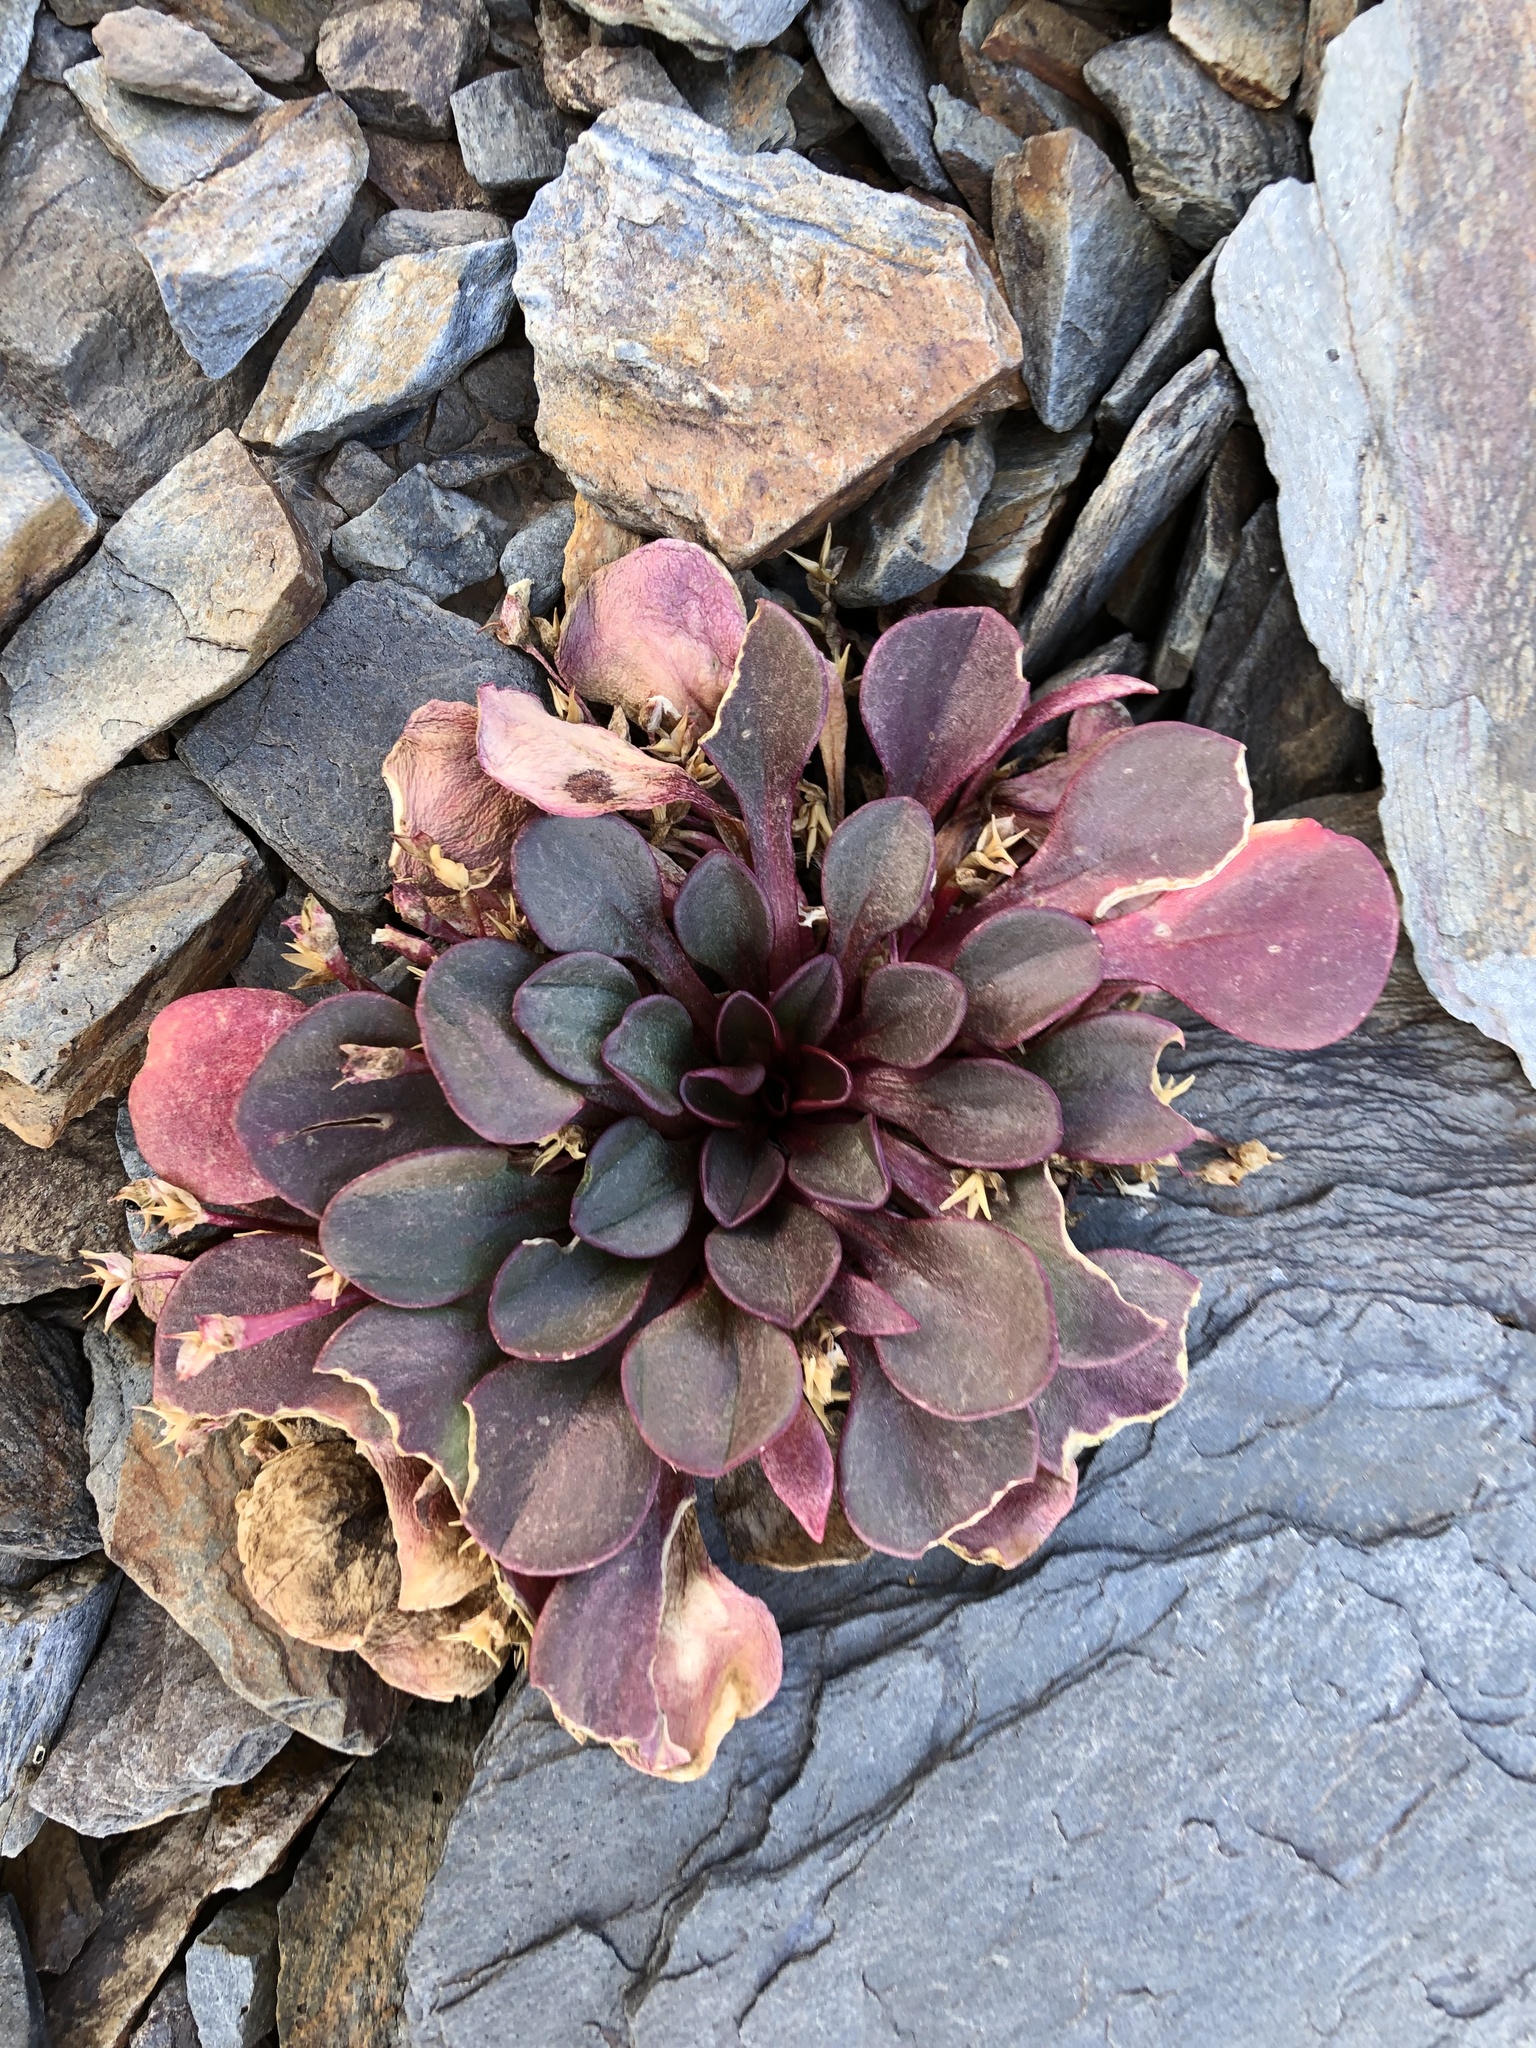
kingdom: Plantae
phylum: Tracheophyta
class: Magnoliopsida
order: Caryophyllales
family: Montiaceae
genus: Claytonia
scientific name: Claytonia megarhiza
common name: Alpine spring beauty
